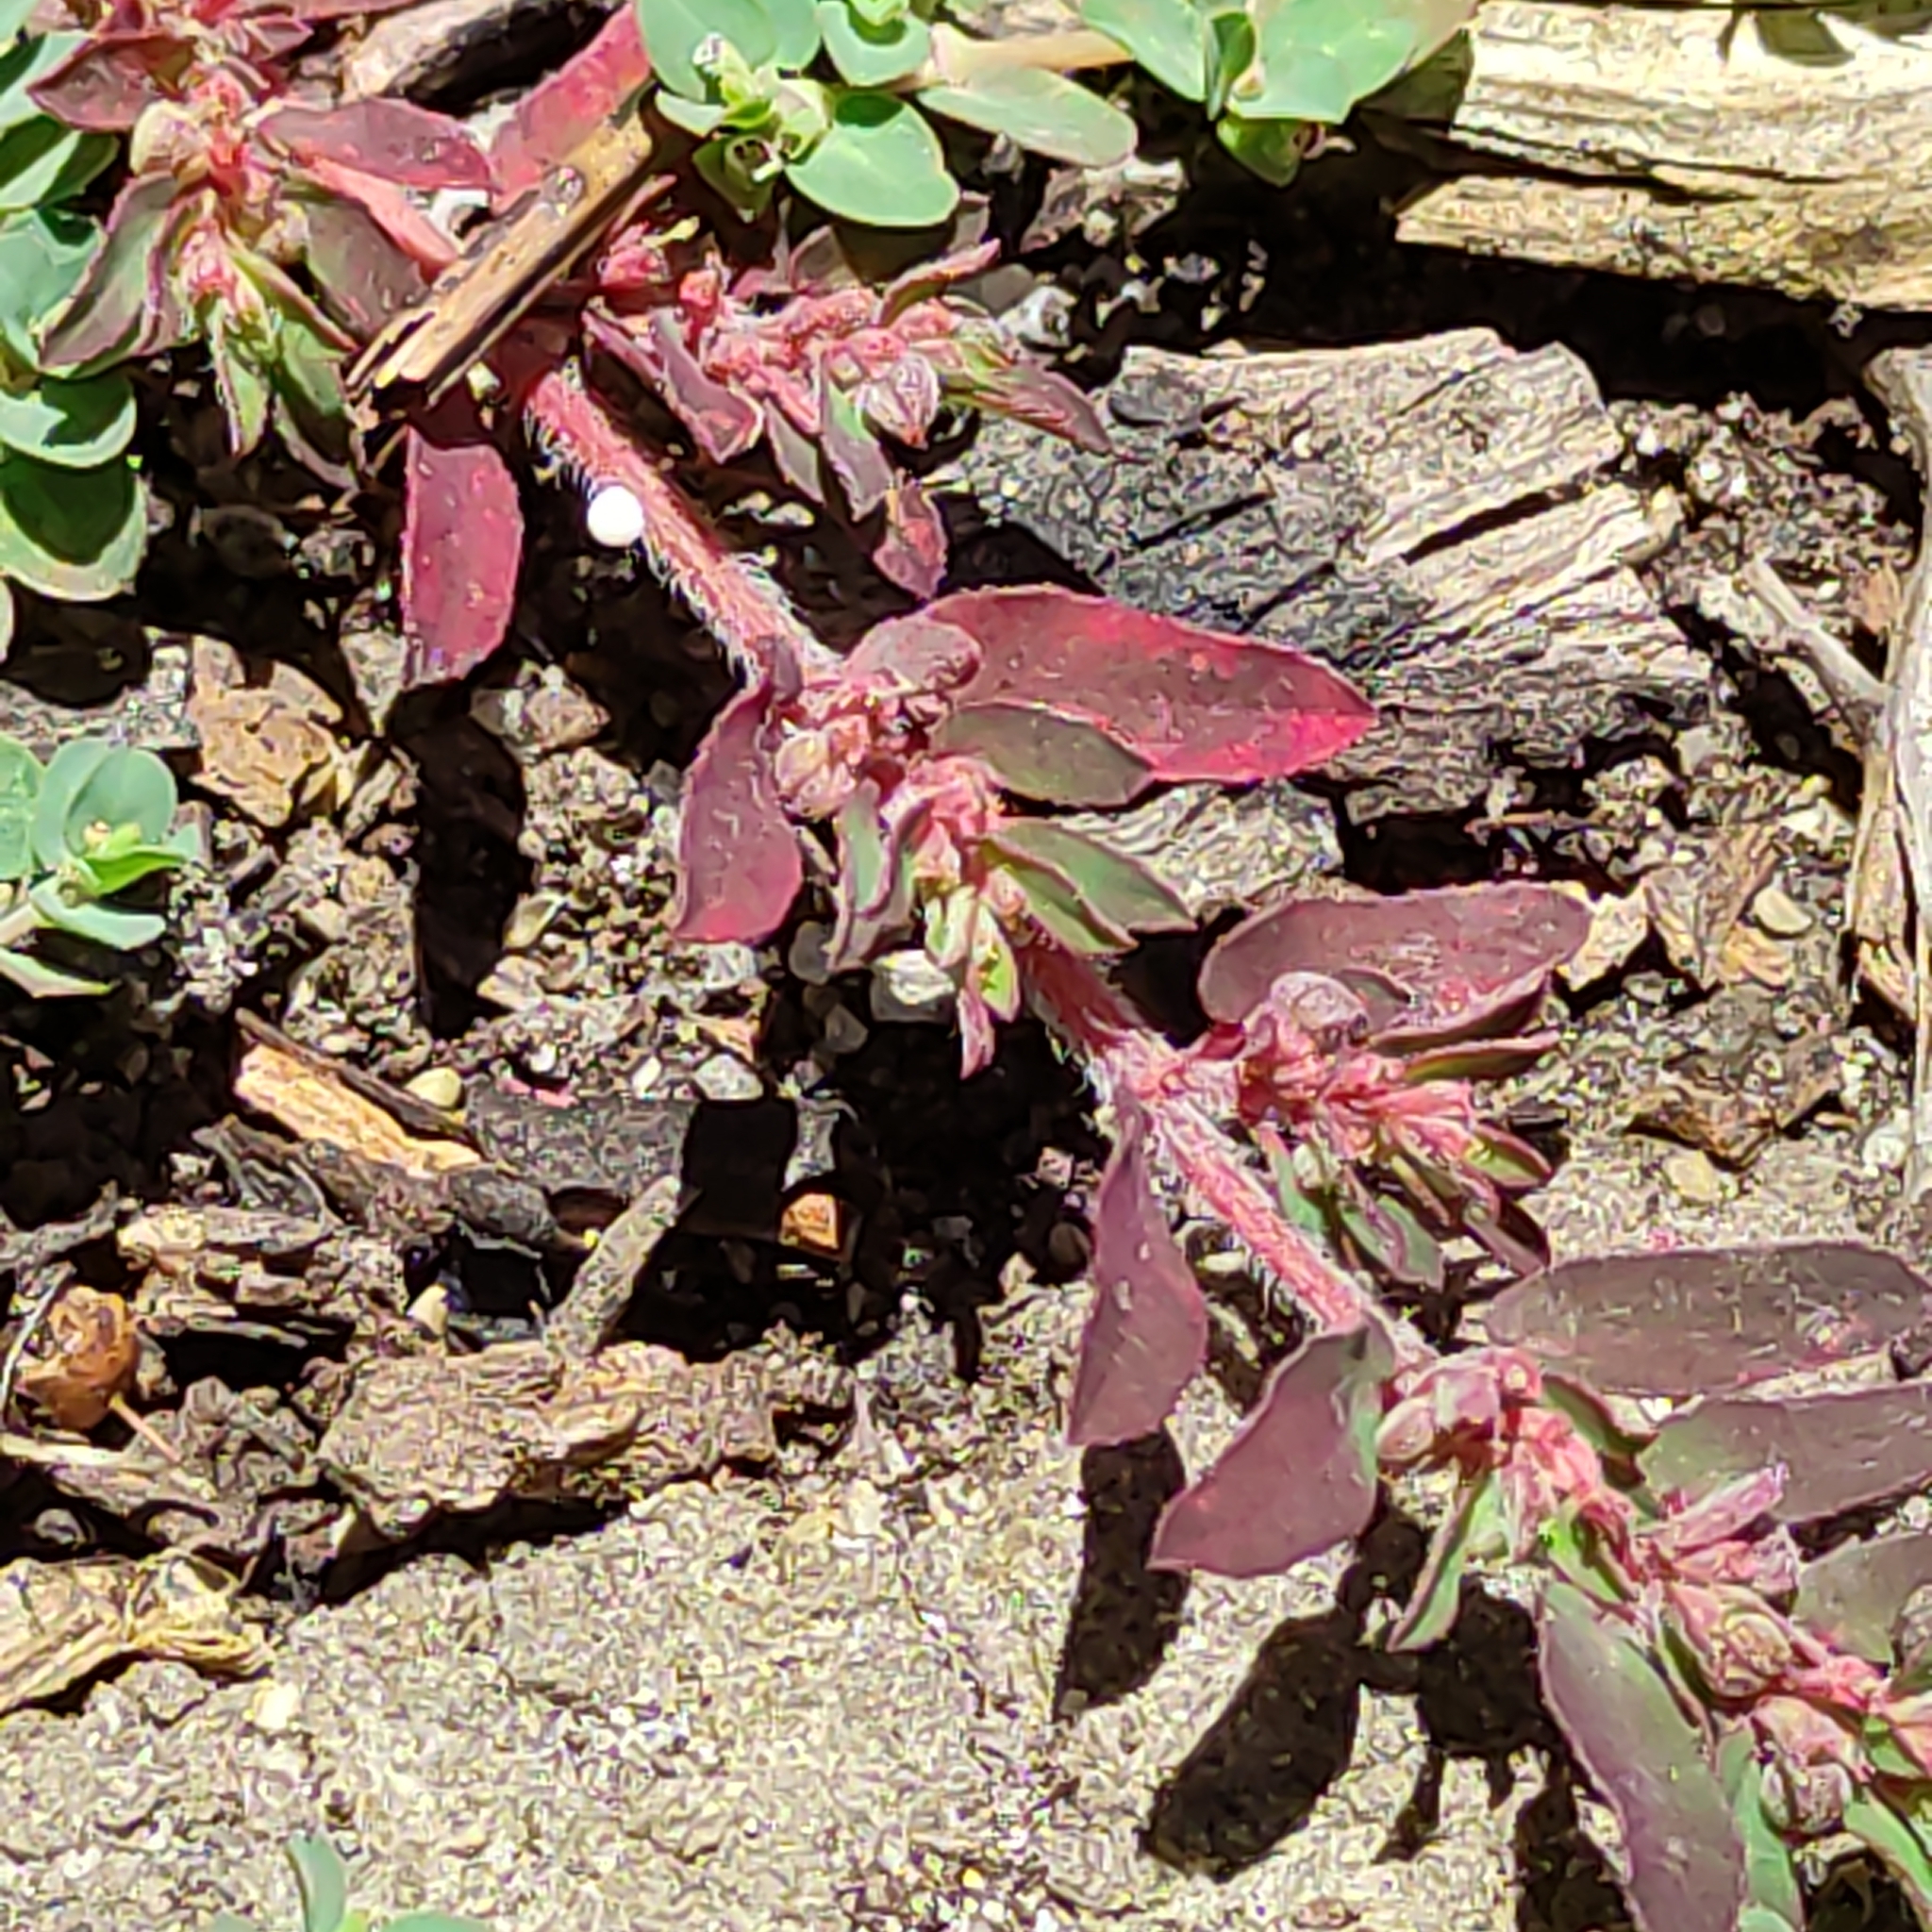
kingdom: Plantae
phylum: Tracheophyta
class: Magnoliopsida
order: Malpighiales
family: Euphorbiaceae
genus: Euphorbia
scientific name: Euphorbia maculata
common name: Spotted spurge
